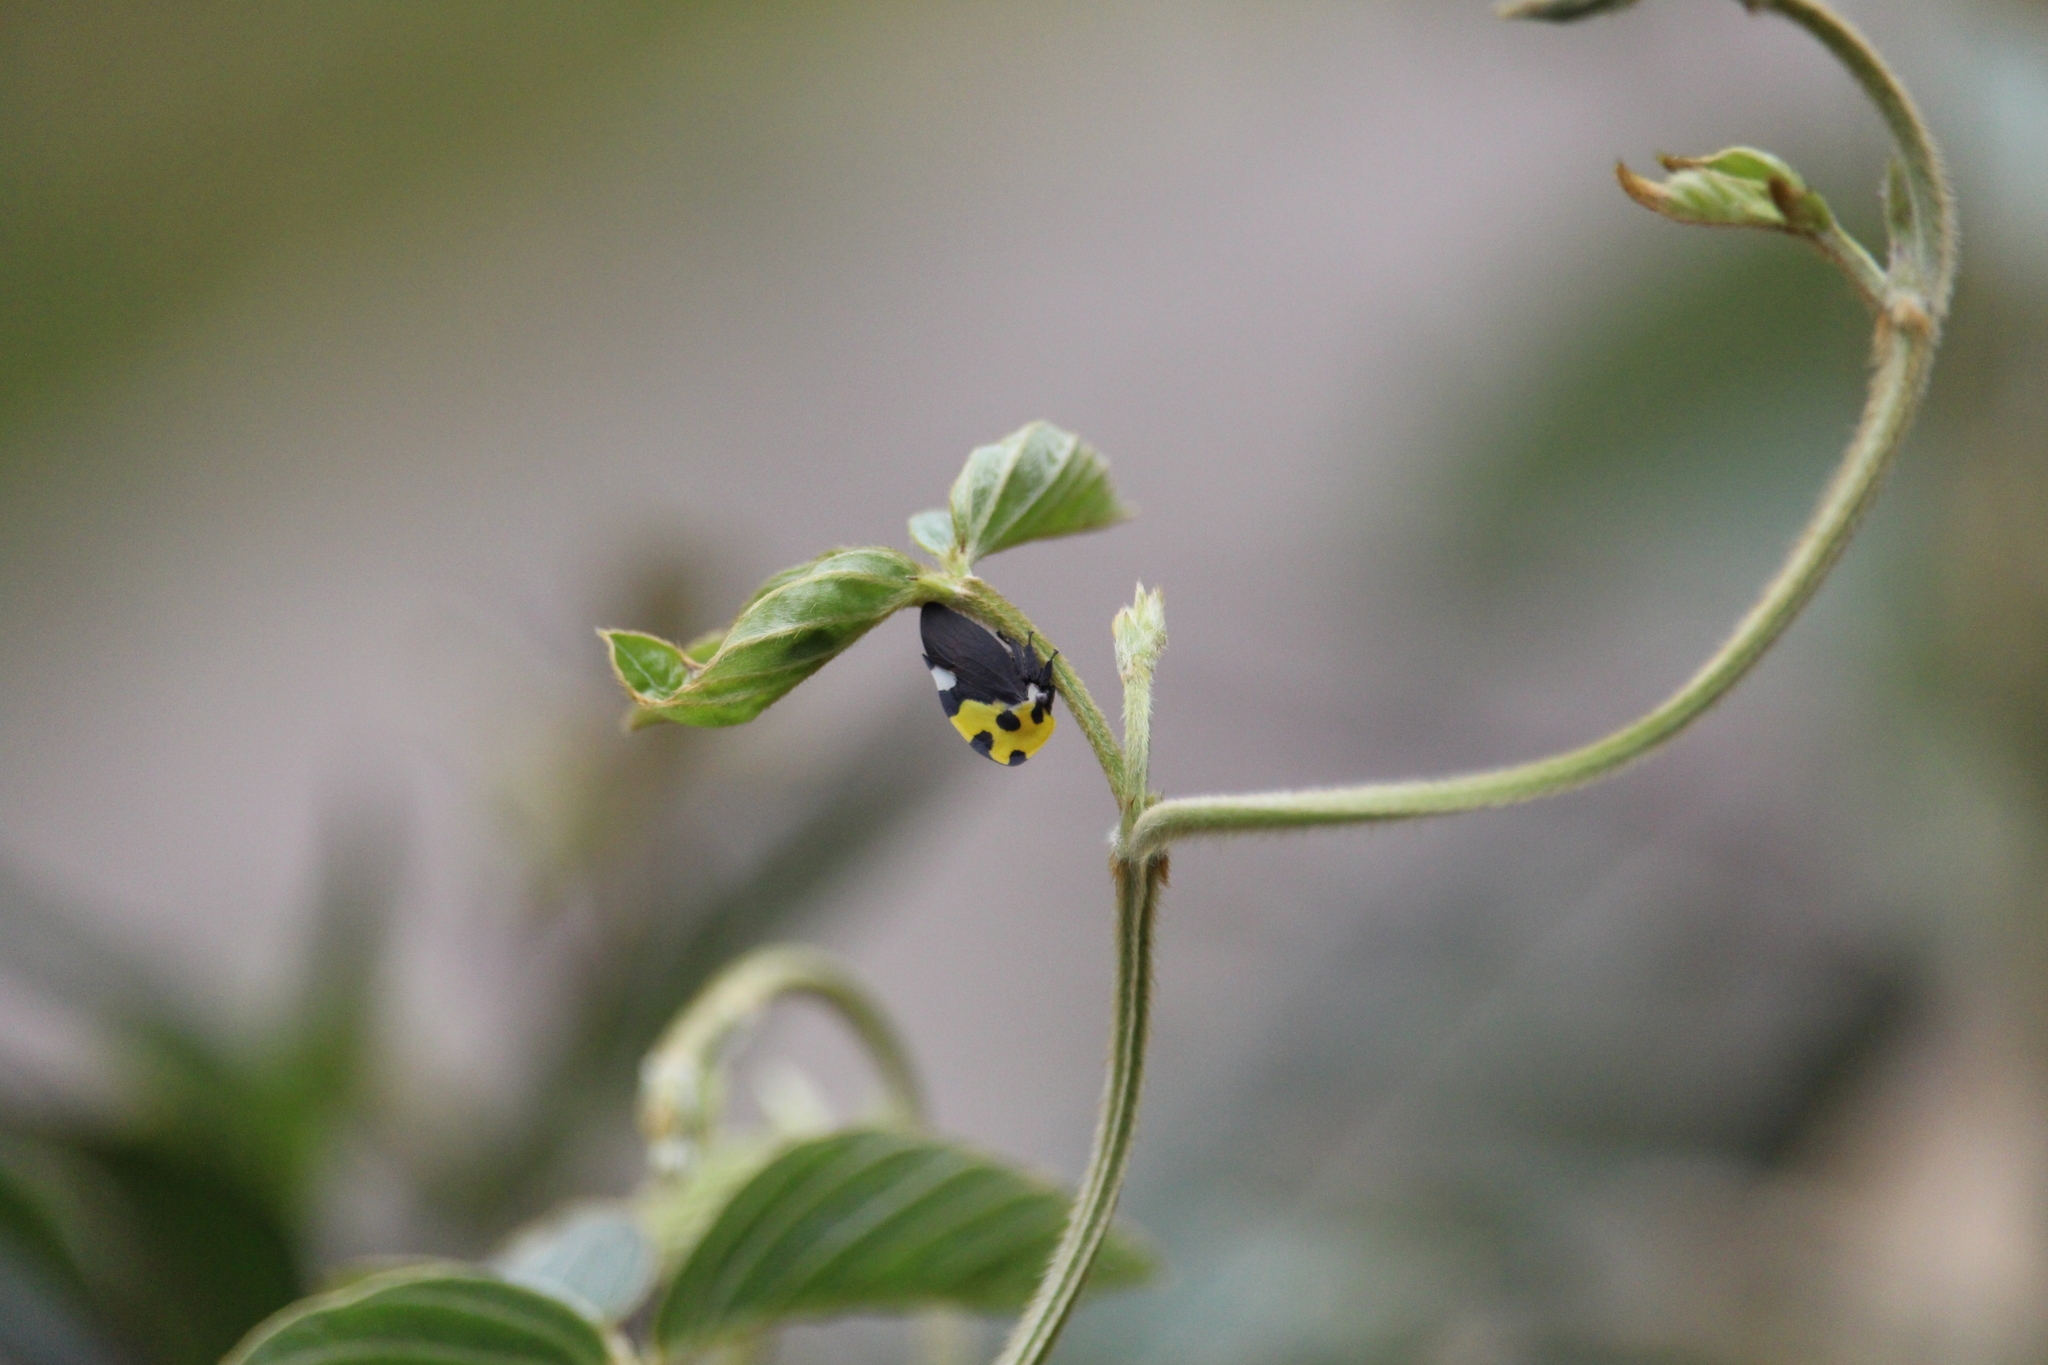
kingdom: Animalia
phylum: Arthropoda
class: Insecta
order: Hemiptera
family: Membracidae
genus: Membracis
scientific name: Membracis mexicana
